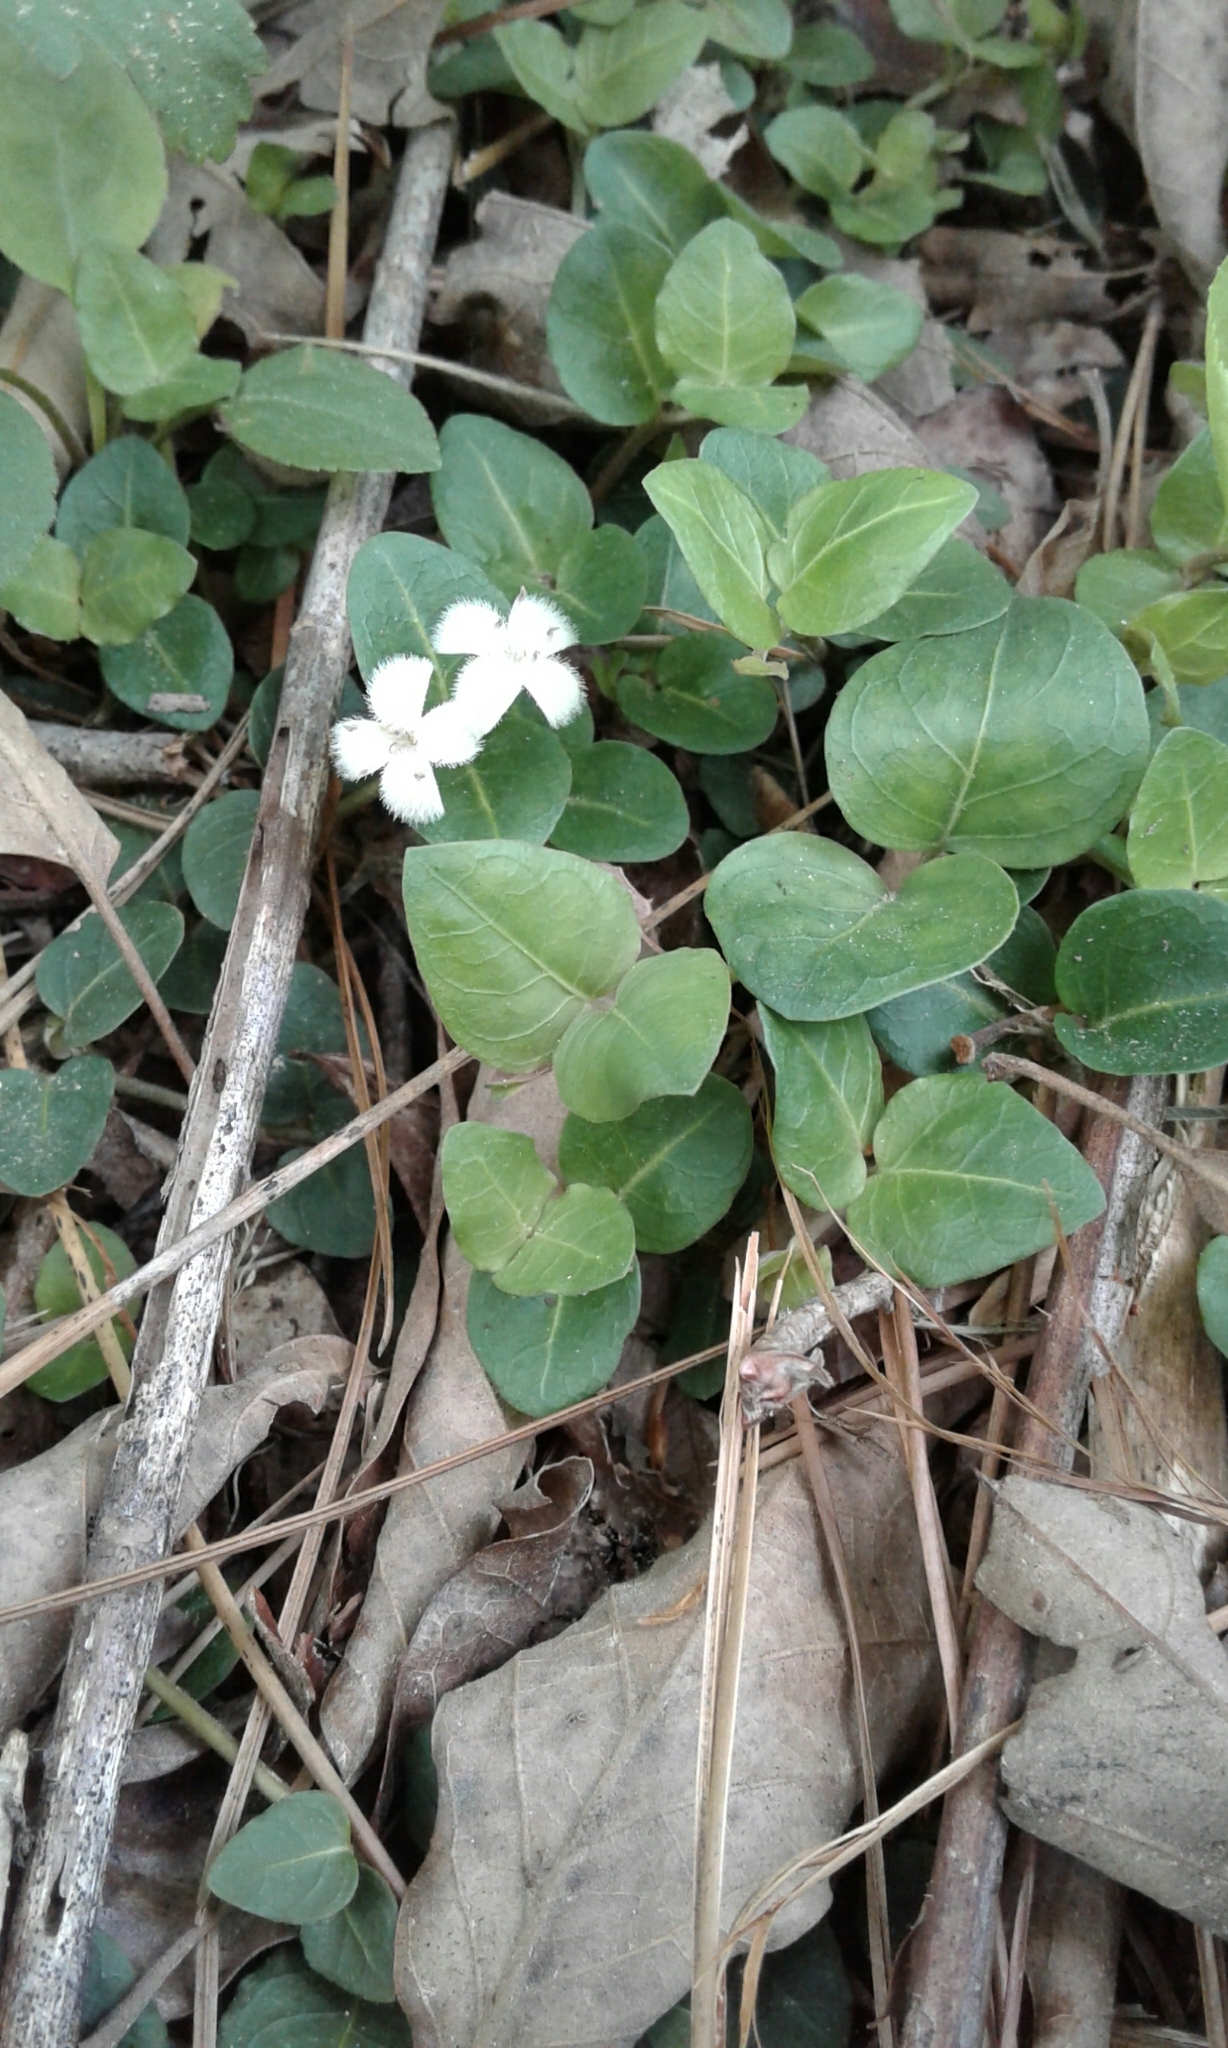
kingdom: Plantae
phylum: Tracheophyta
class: Magnoliopsida
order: Gentianales
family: Rubiaceae
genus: Mitchella
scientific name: Mitchella repens
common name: Partridge-berry
